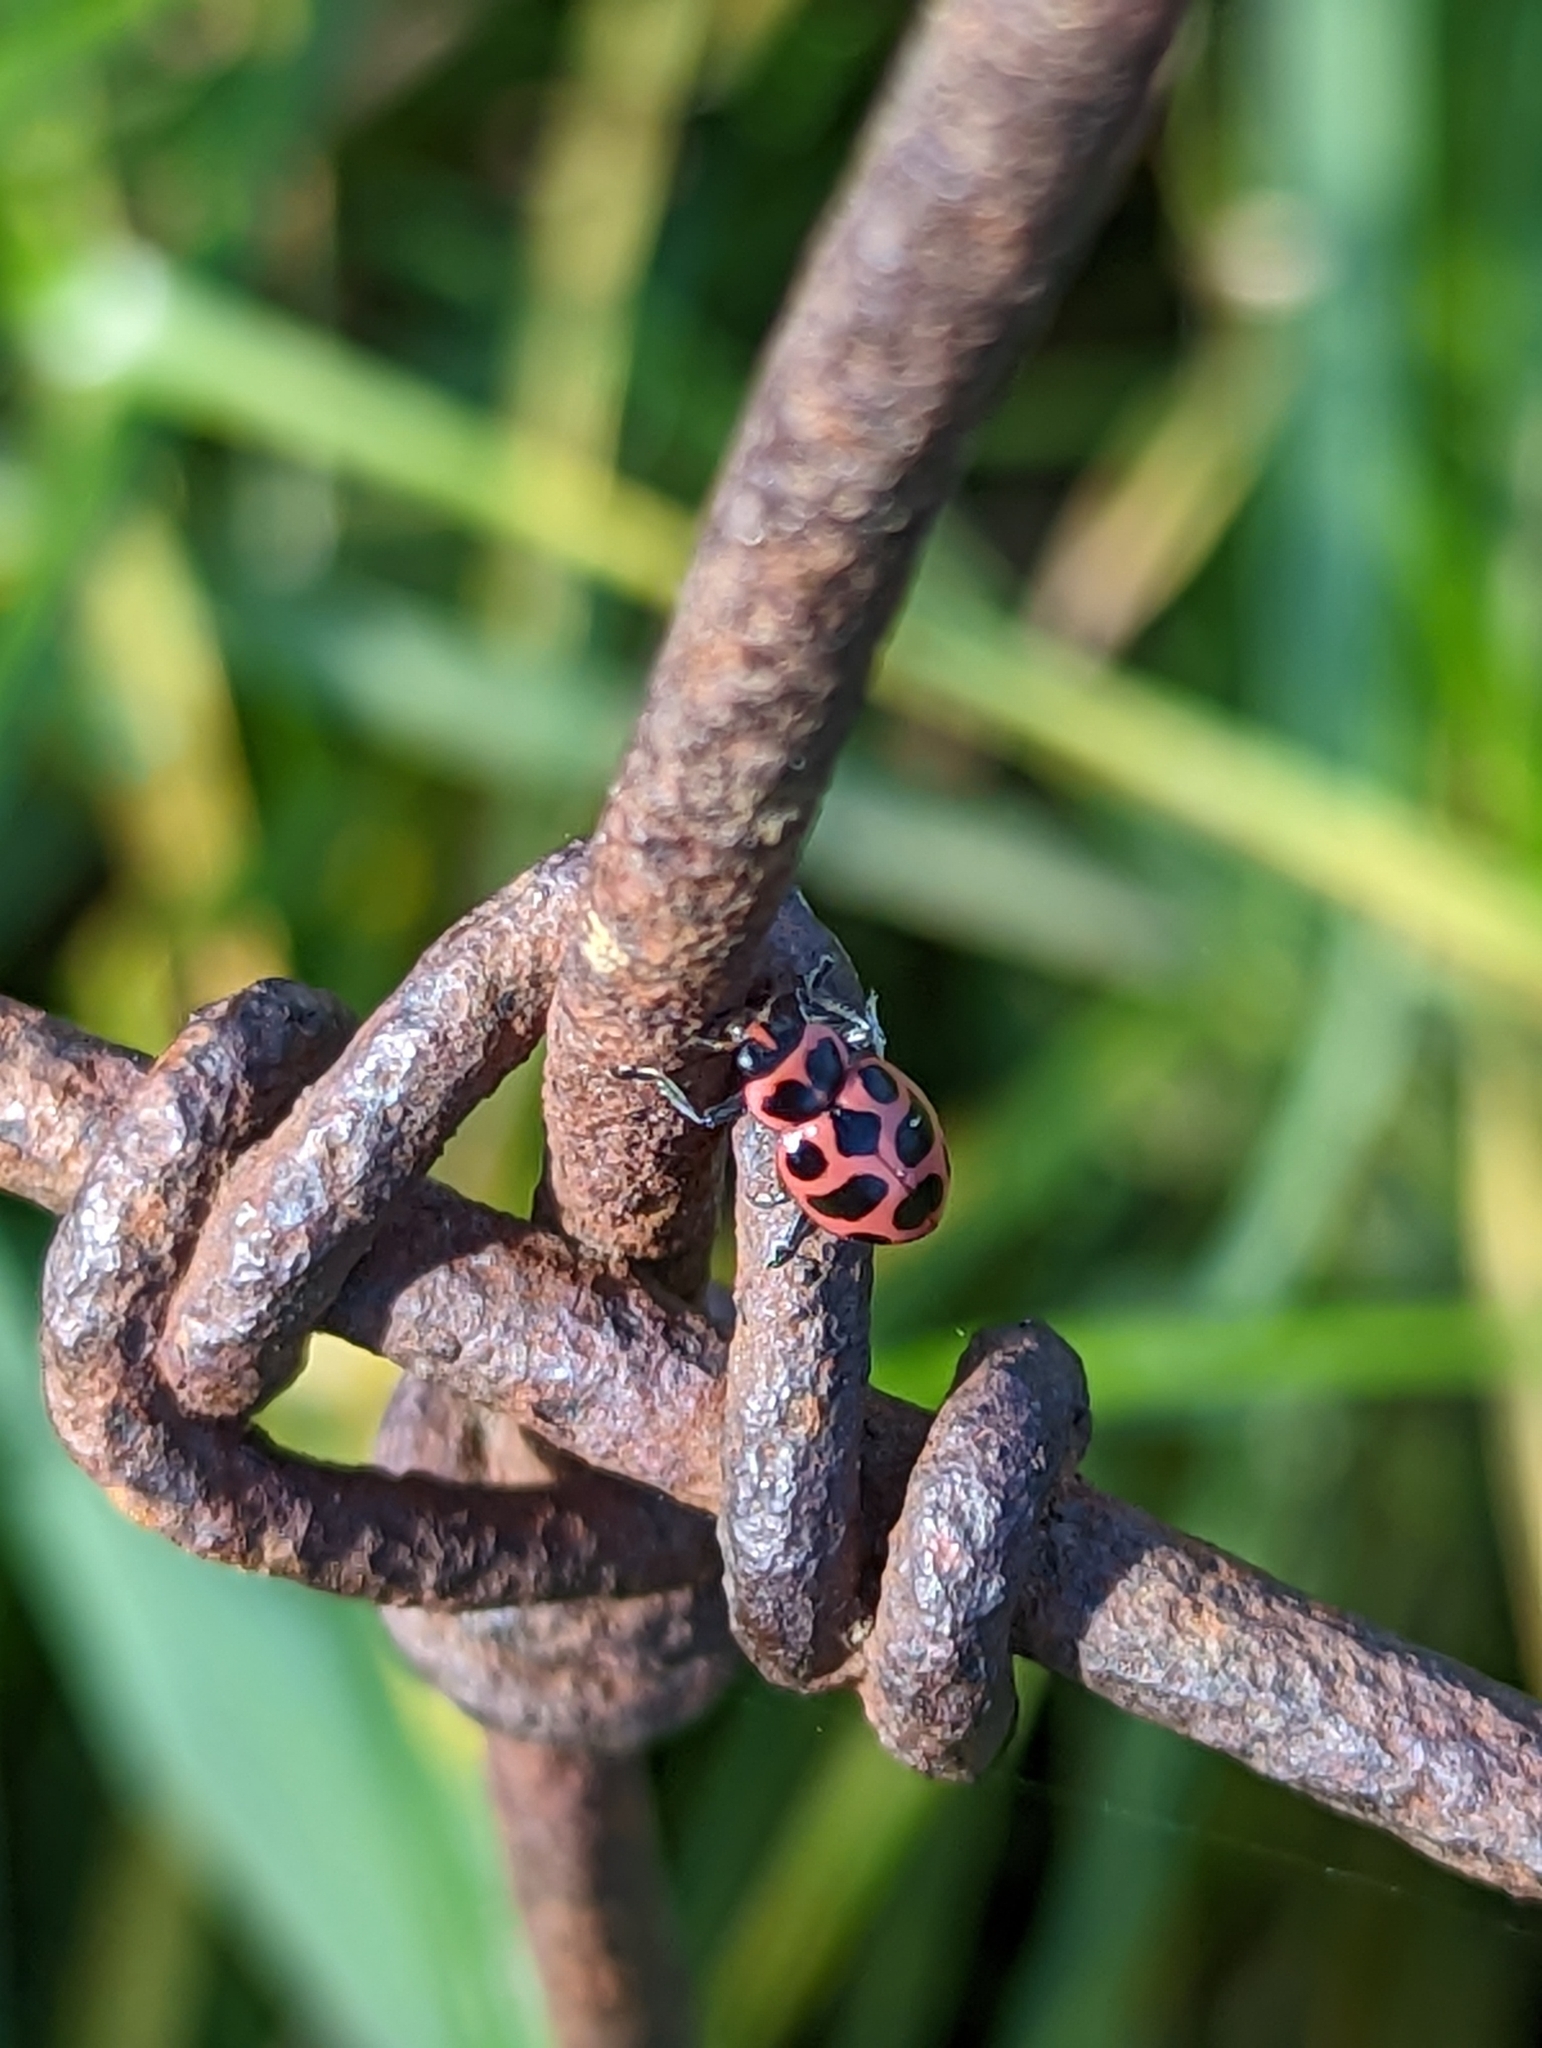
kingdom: Animalia
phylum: Arthropoda
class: Insecta
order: Coleoptera
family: Coccinellidae
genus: Coleomegilla
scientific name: Coleomegilla maculata
